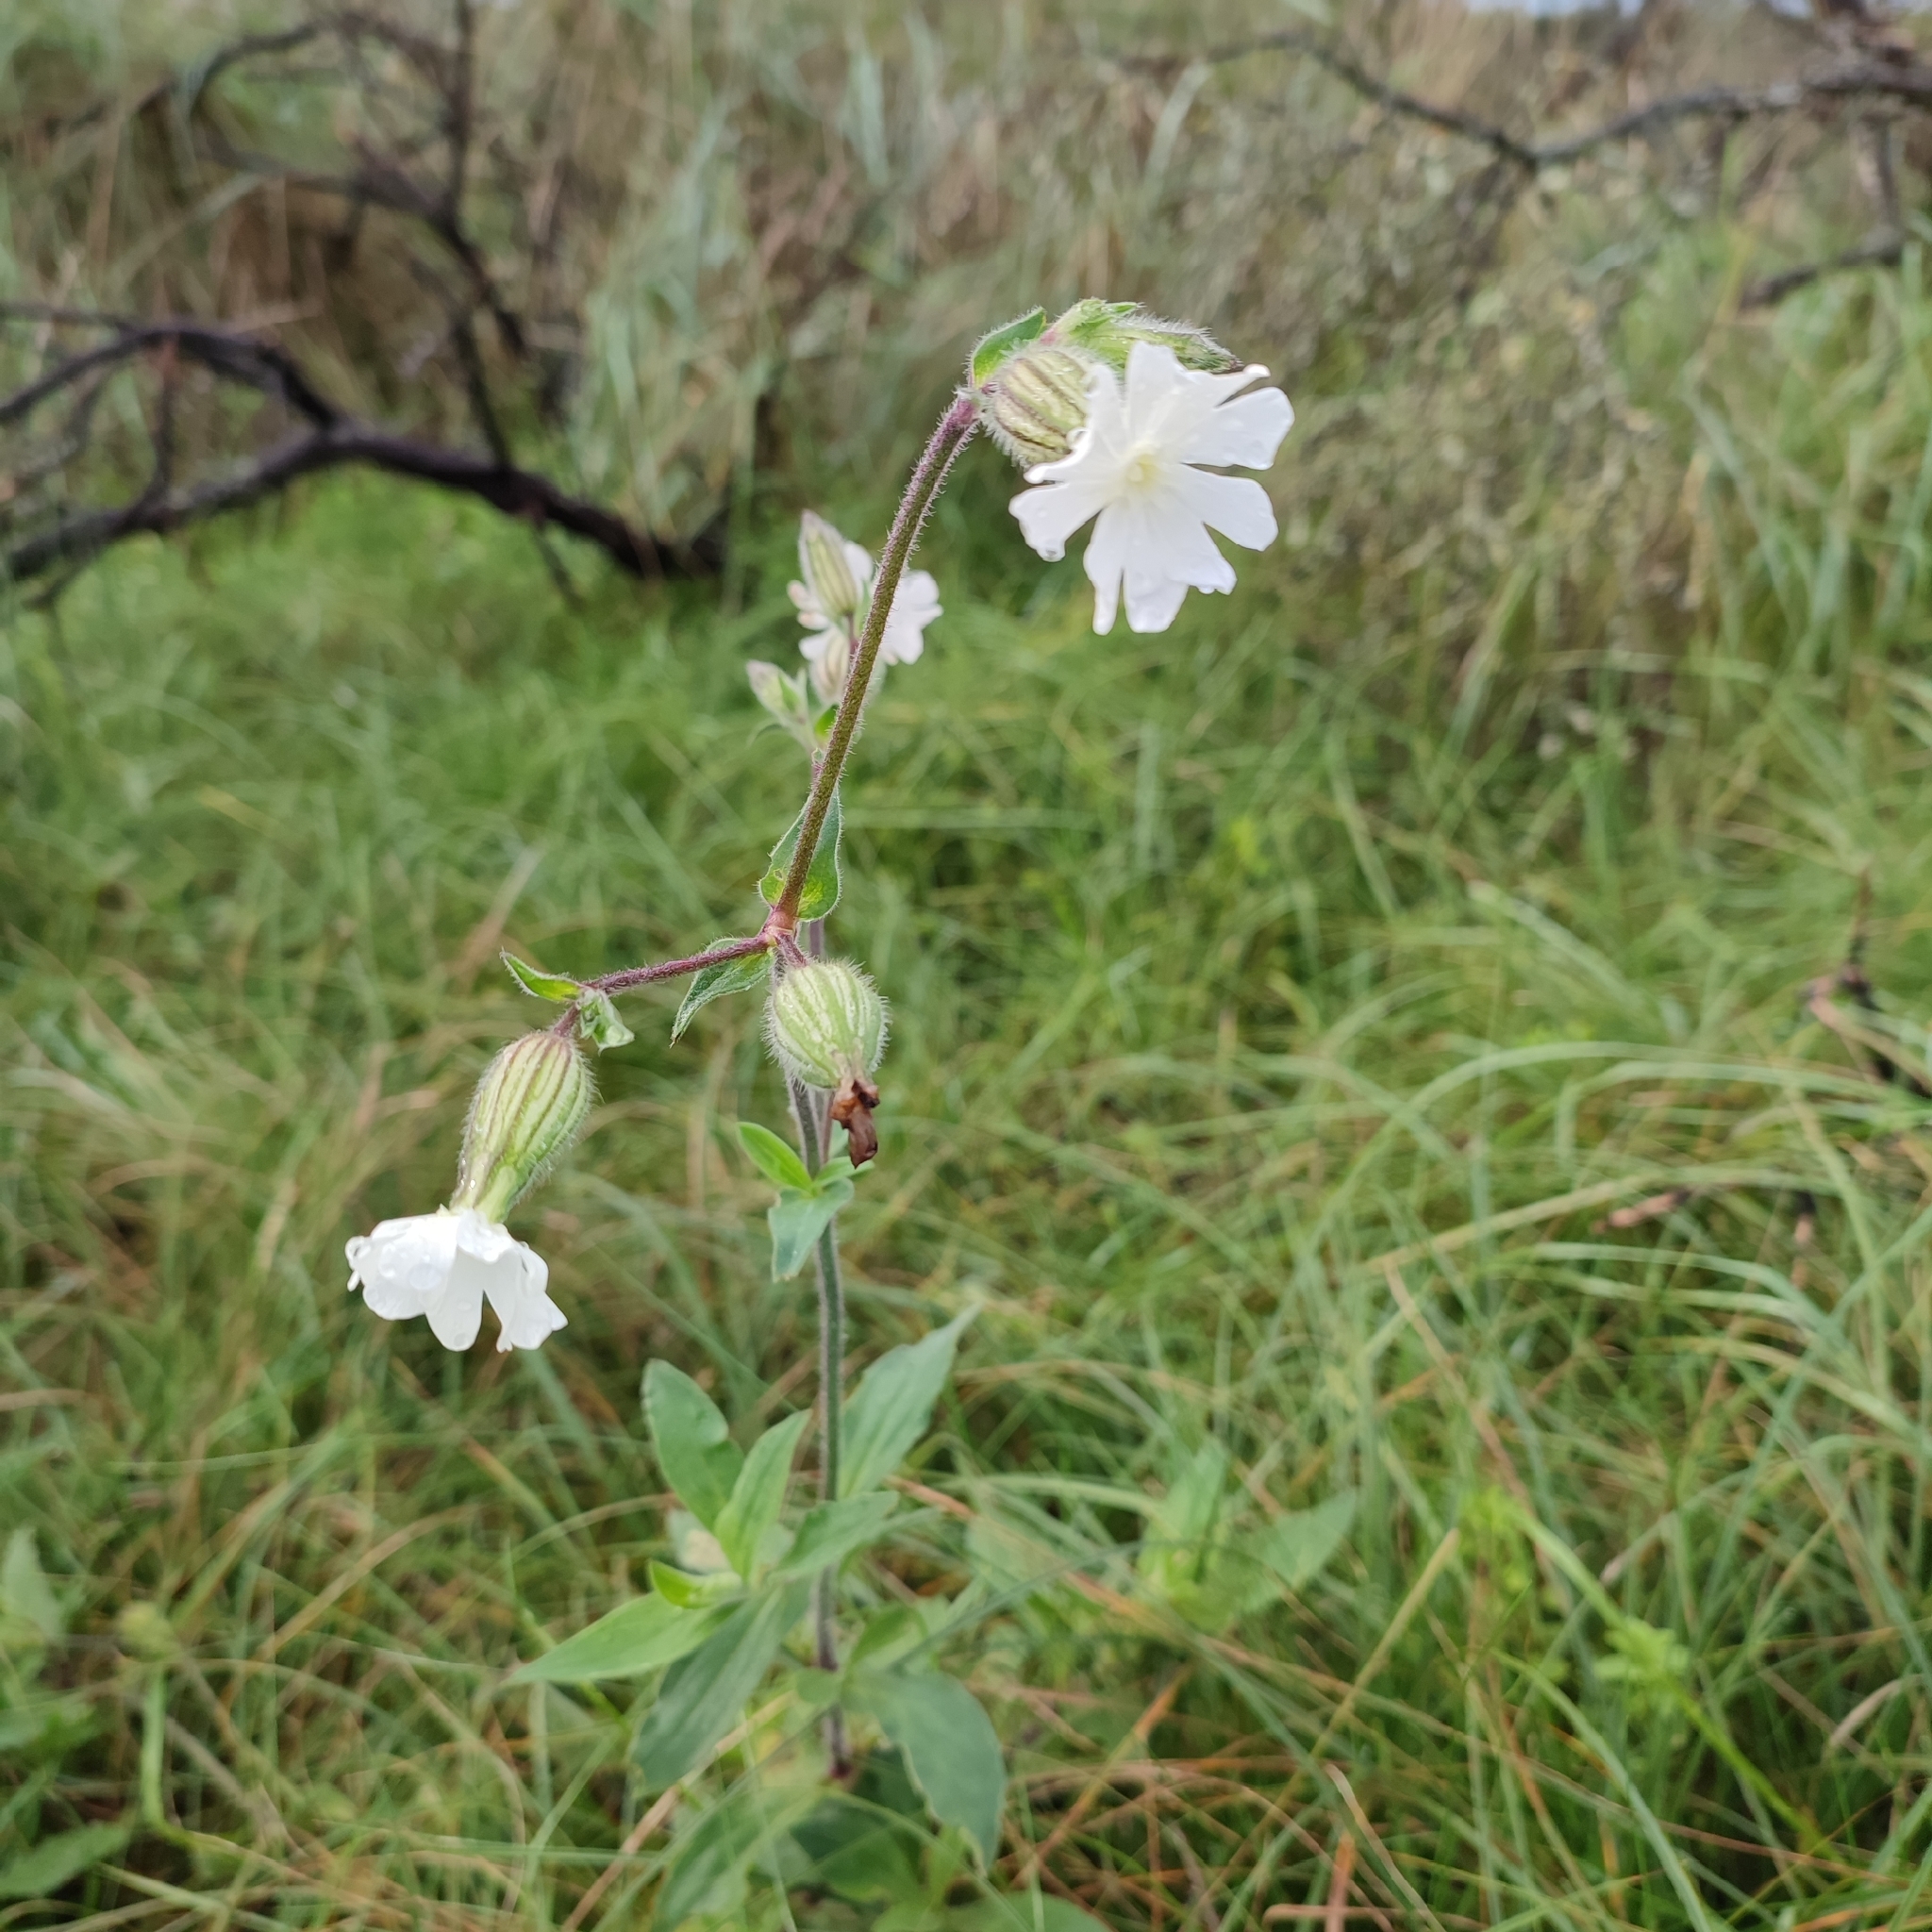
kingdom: Plantae
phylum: Tracheophyta
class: Magnoliopsida
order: Caryophyllales
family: Caryophyllaceae
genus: Silene
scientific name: Silene latifolia
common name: White campion
